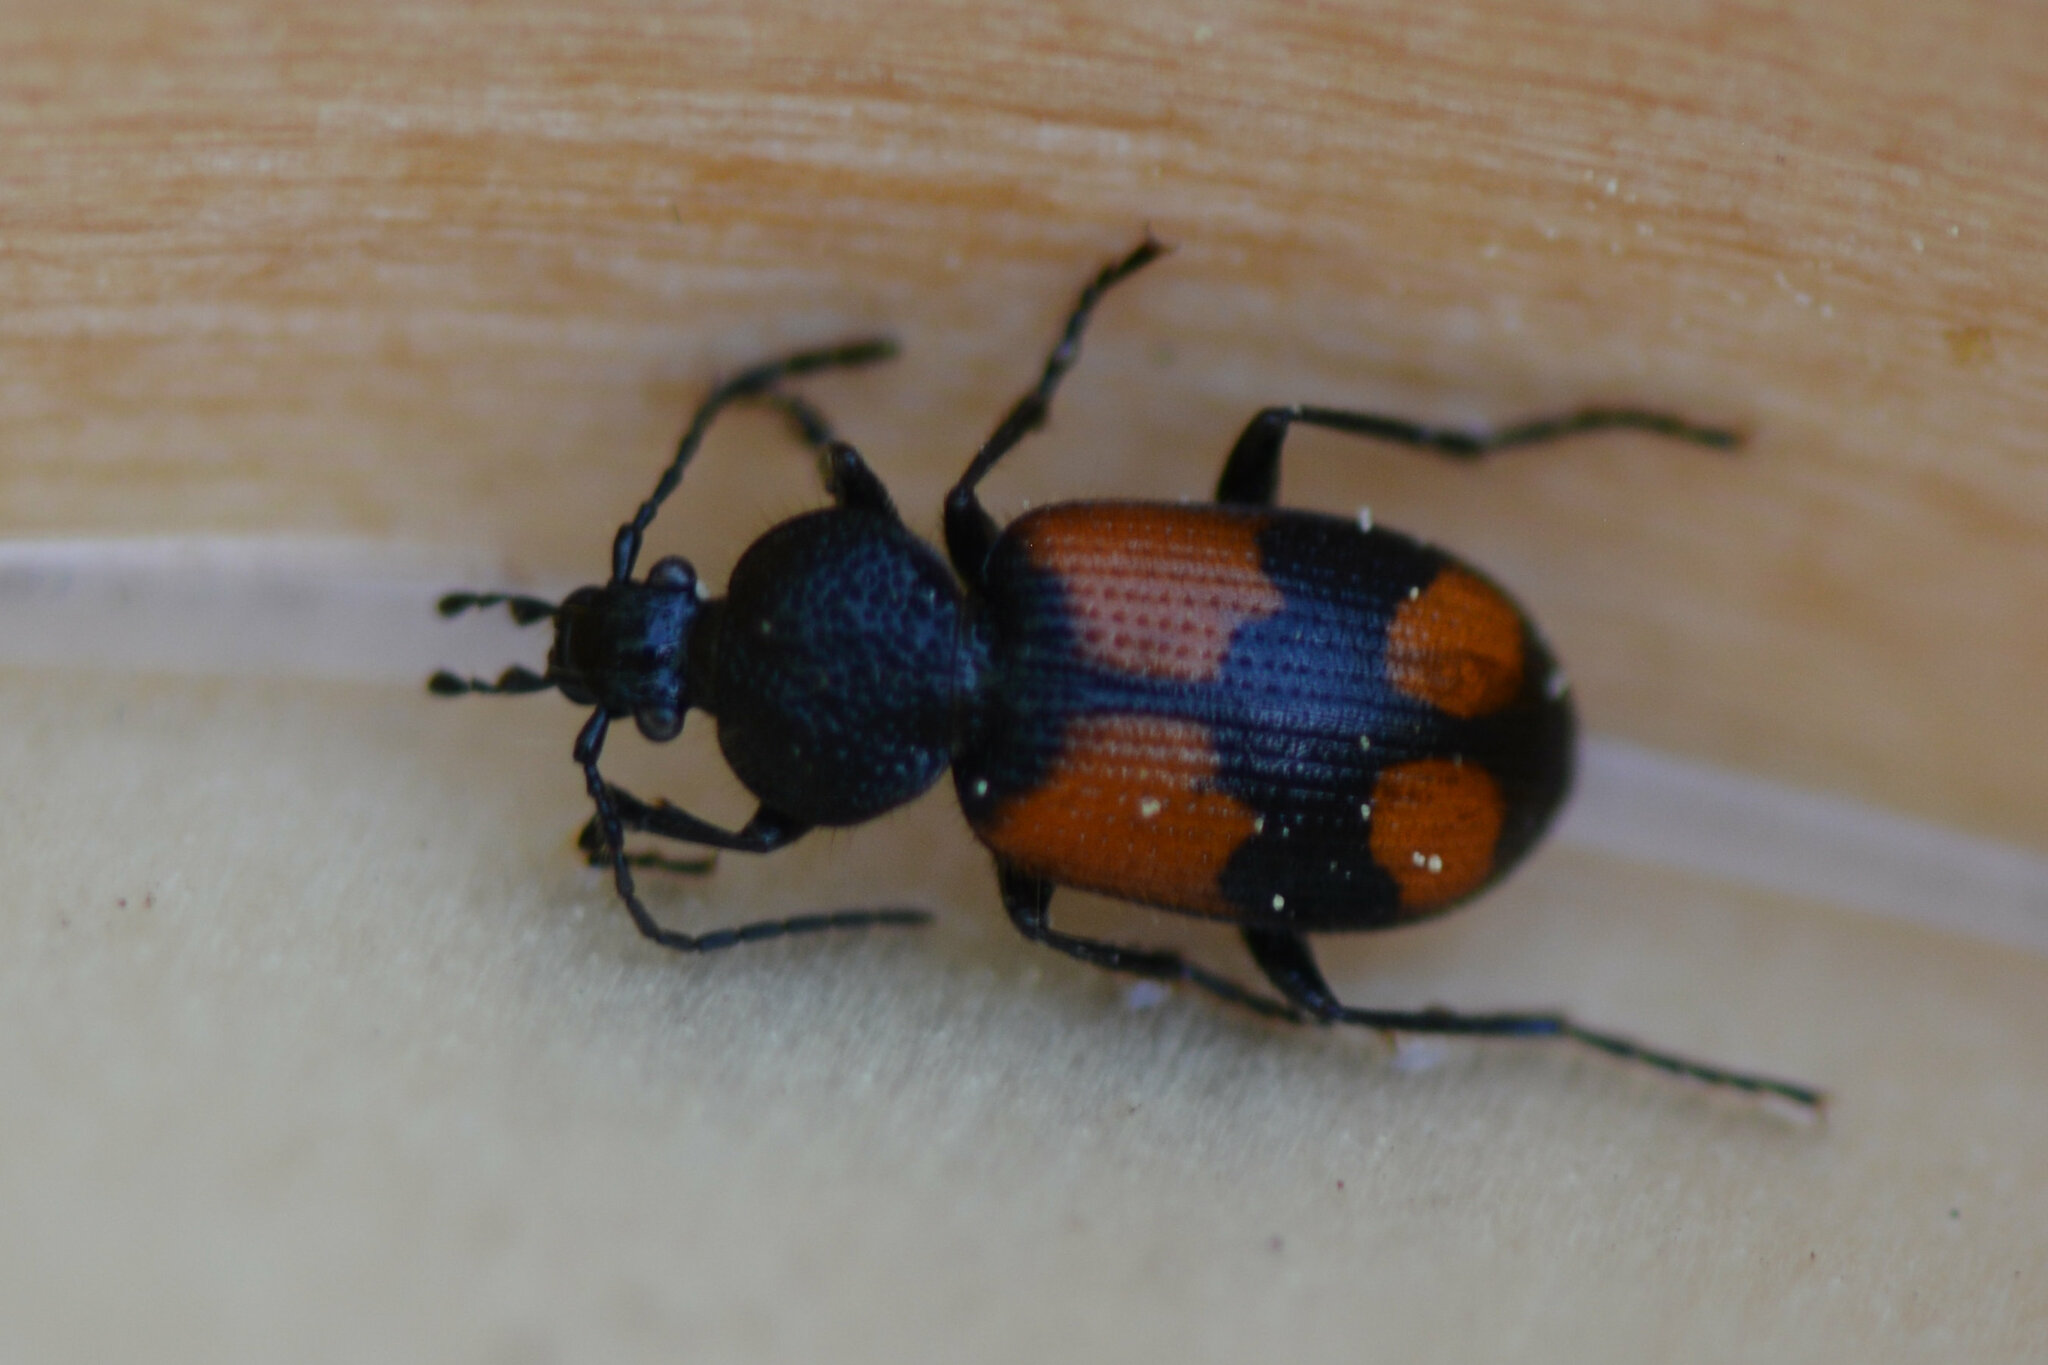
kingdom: Animalia
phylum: Arthropoda
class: Insecta
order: Coleoptera
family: Carabidae
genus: Panagaeus
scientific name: Panagaeus cruxmajor
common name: Crucifix ground beetle
